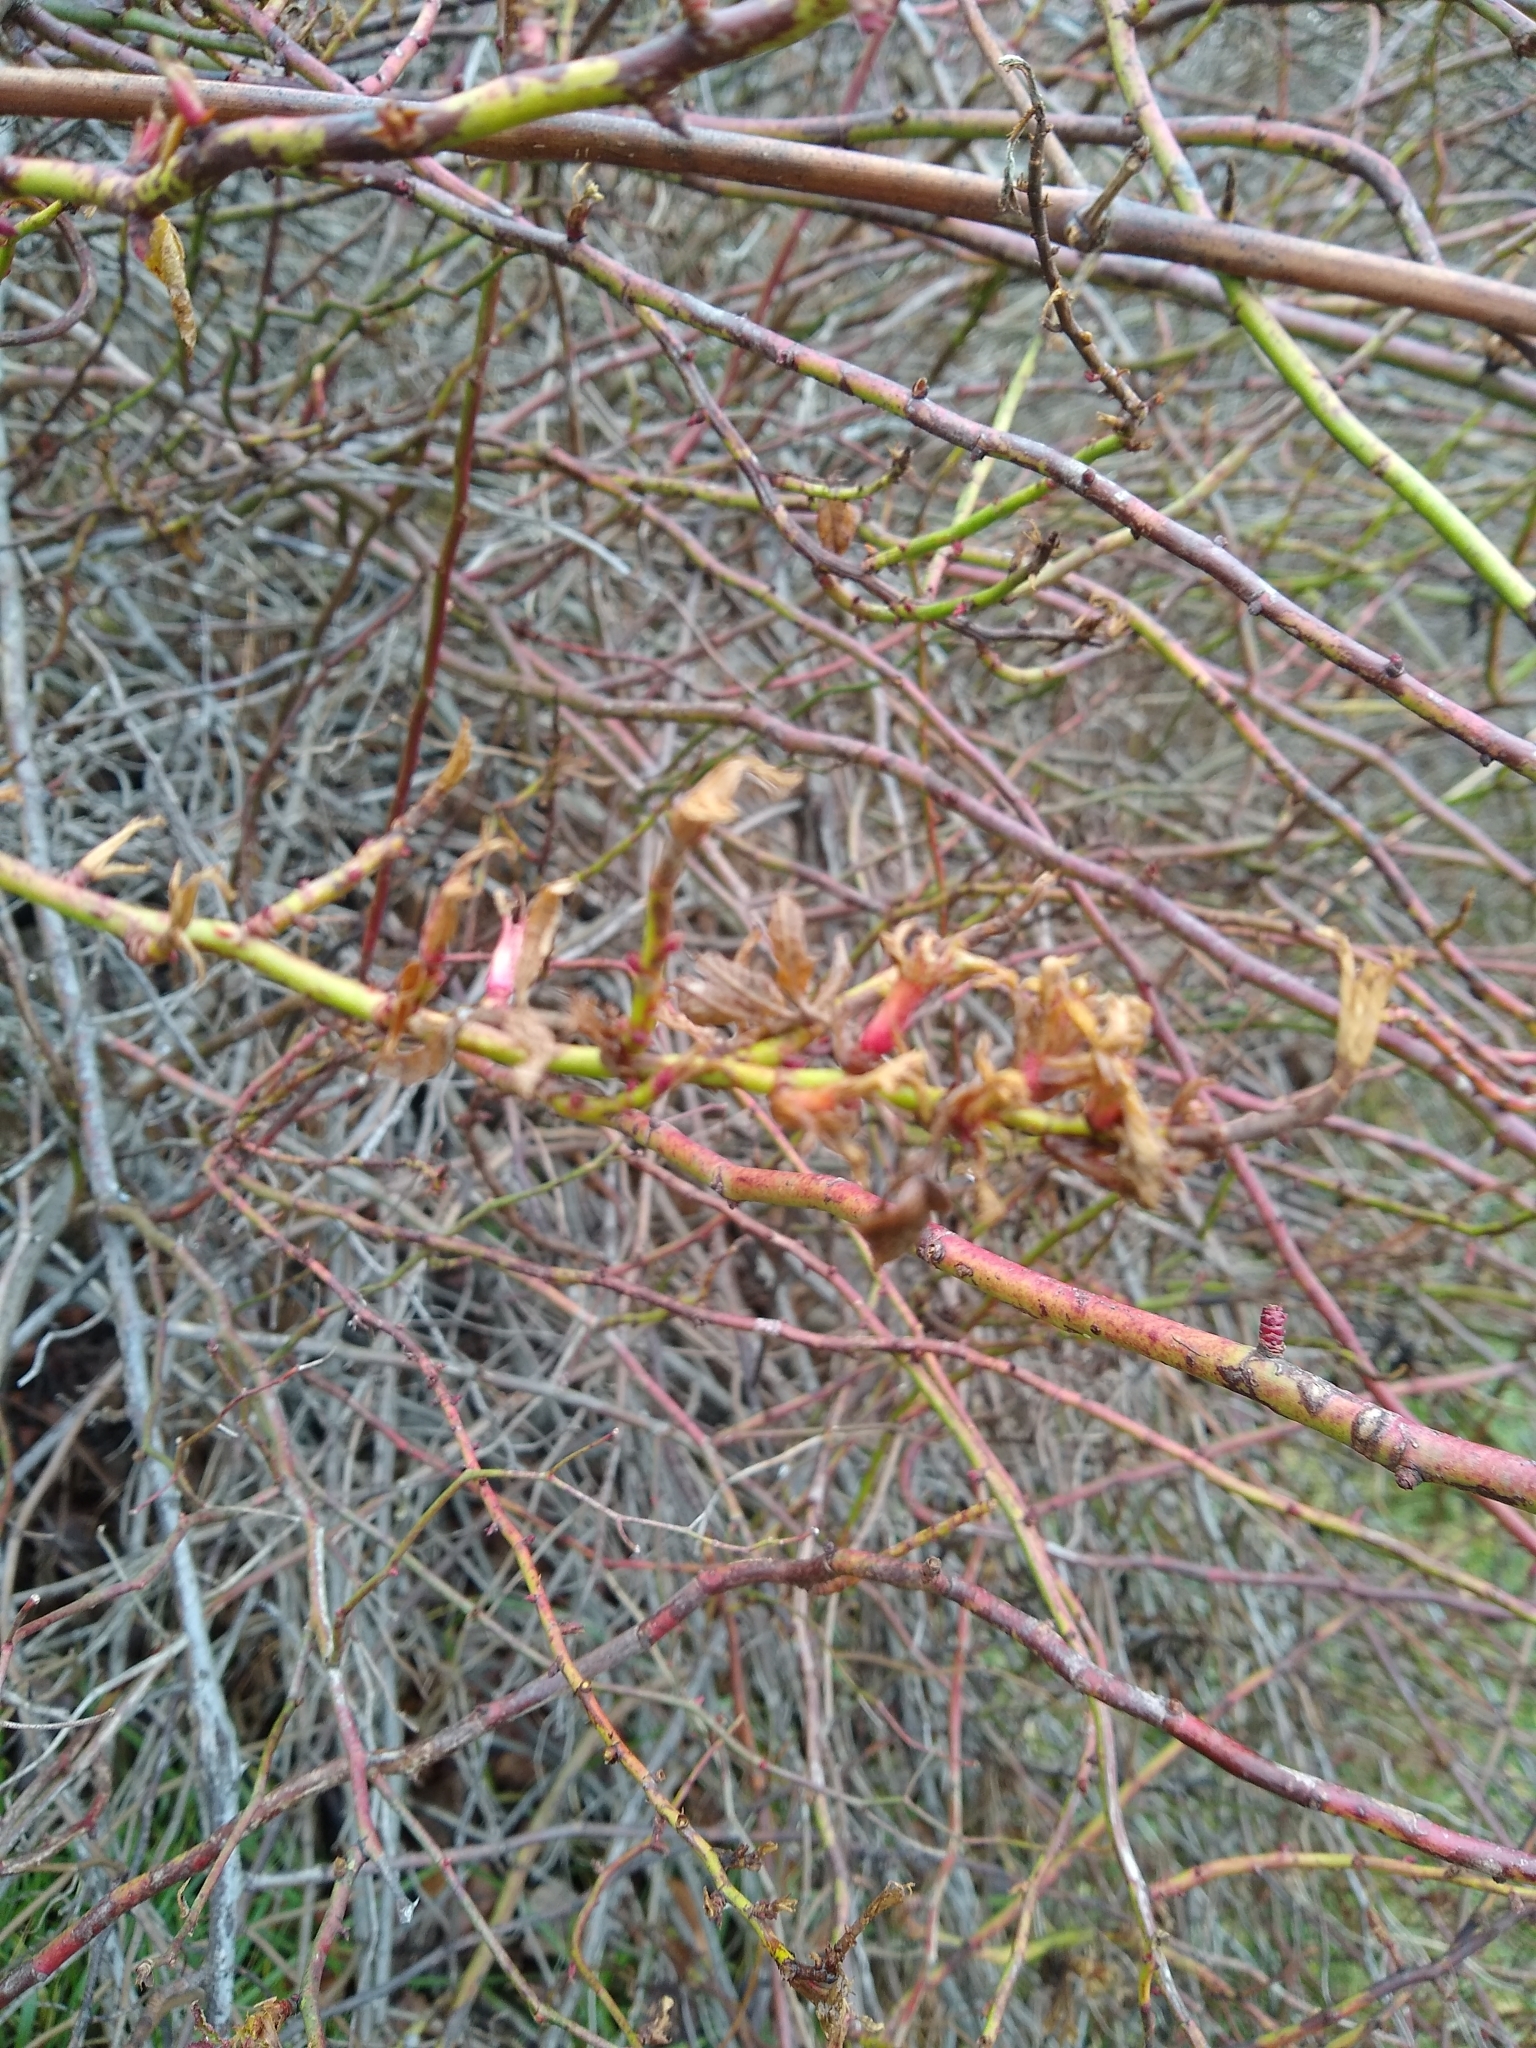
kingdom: Viruses
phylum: Negarnaviricota
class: Ellioviricetes
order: Bunyavirales
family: Fimoviridae
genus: Emaravirus
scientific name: Emaravirus rosae
